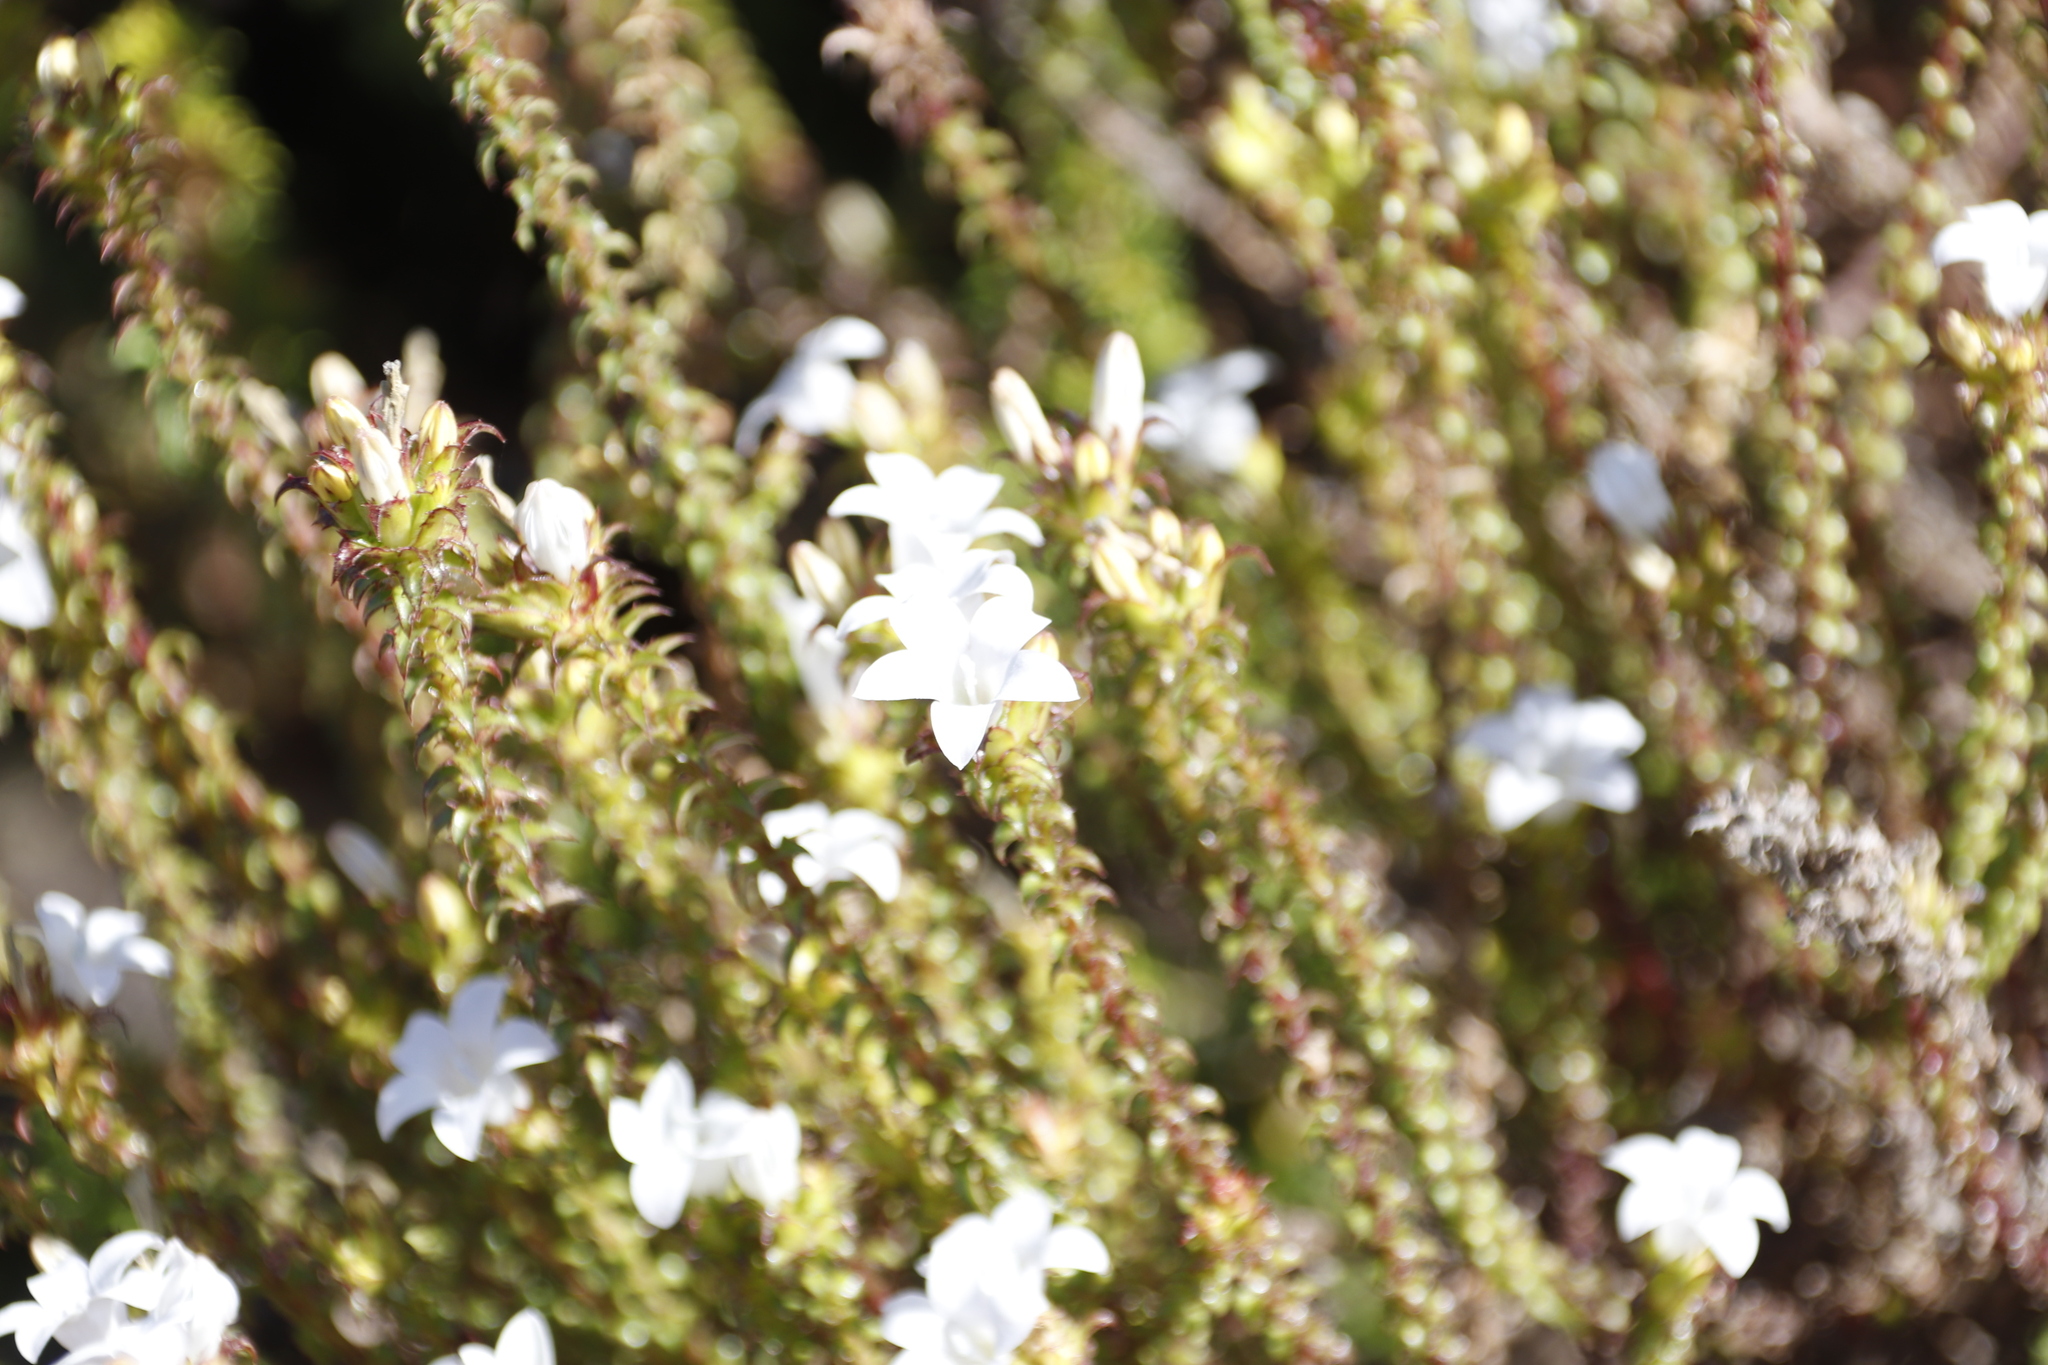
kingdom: Plantae
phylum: Tracheophyta
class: Magnoliopsida
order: Asterales
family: Campanulaceae
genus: Roella
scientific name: Roella amplexicaulis
